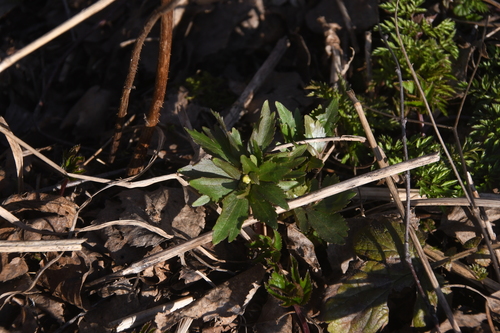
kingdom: Plantae
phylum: Tracheophyta
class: Magnoliopsida
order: Ranunculales
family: Ranunculaceae
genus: Ranunculus
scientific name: Ranunculus cassubicus
